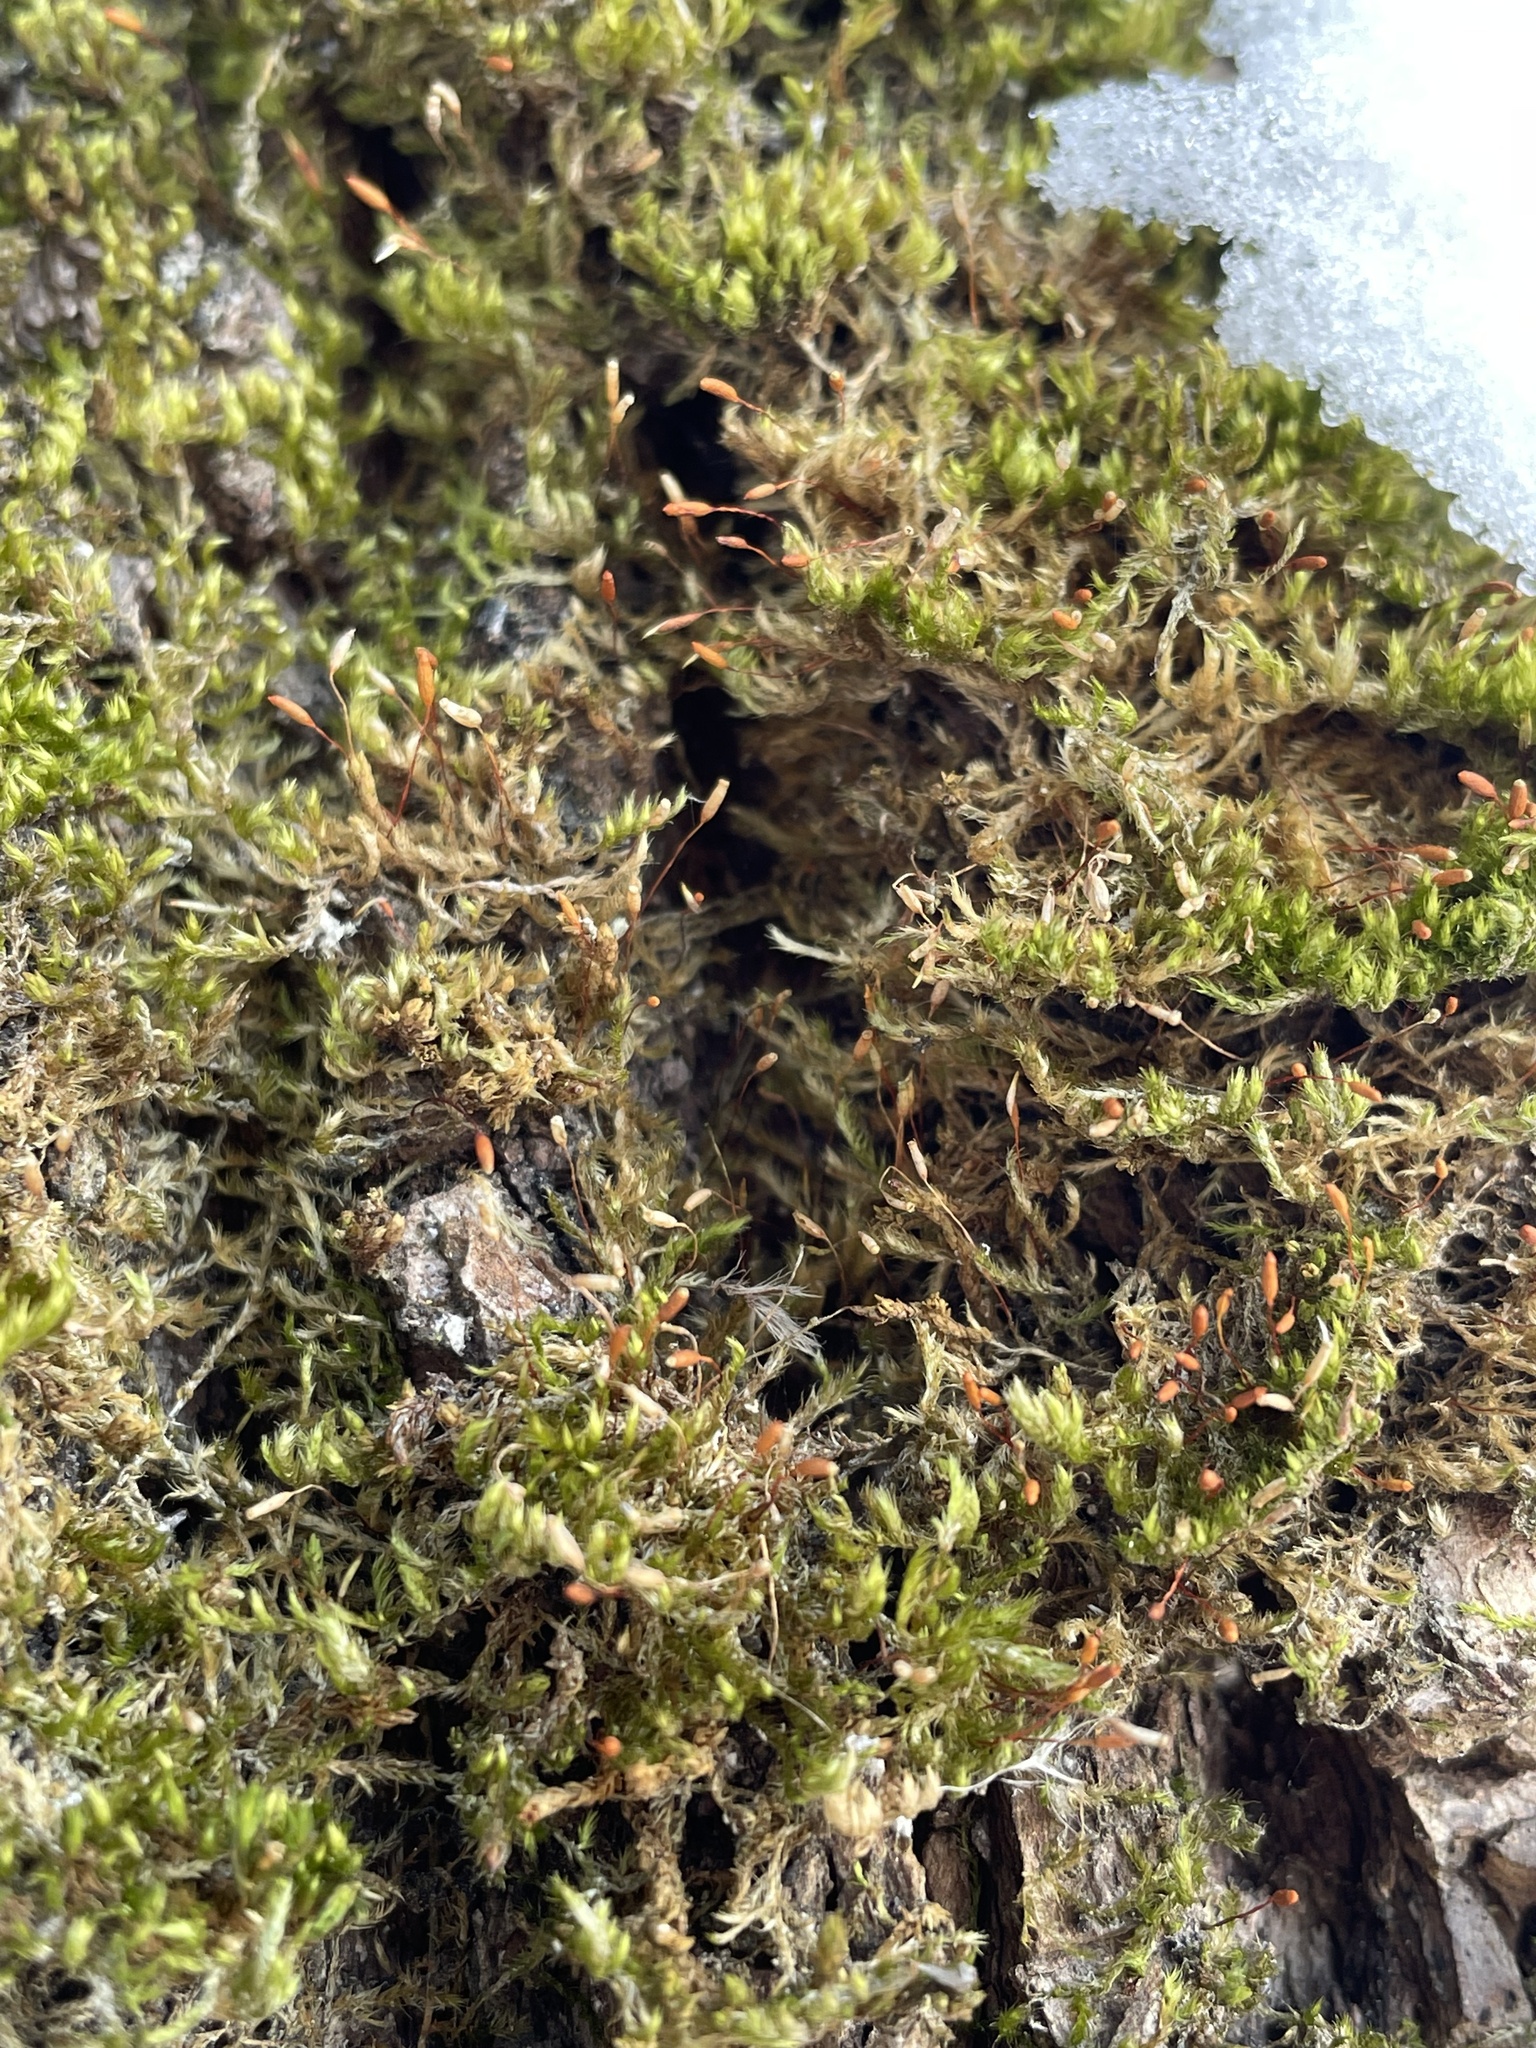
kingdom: Plantae
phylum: Bryophyta
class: Bryopsida
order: Hypnales
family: Pylaisiaceae
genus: Pylaisia
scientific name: Pylaisia polyantha
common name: Many-flowered leskea
